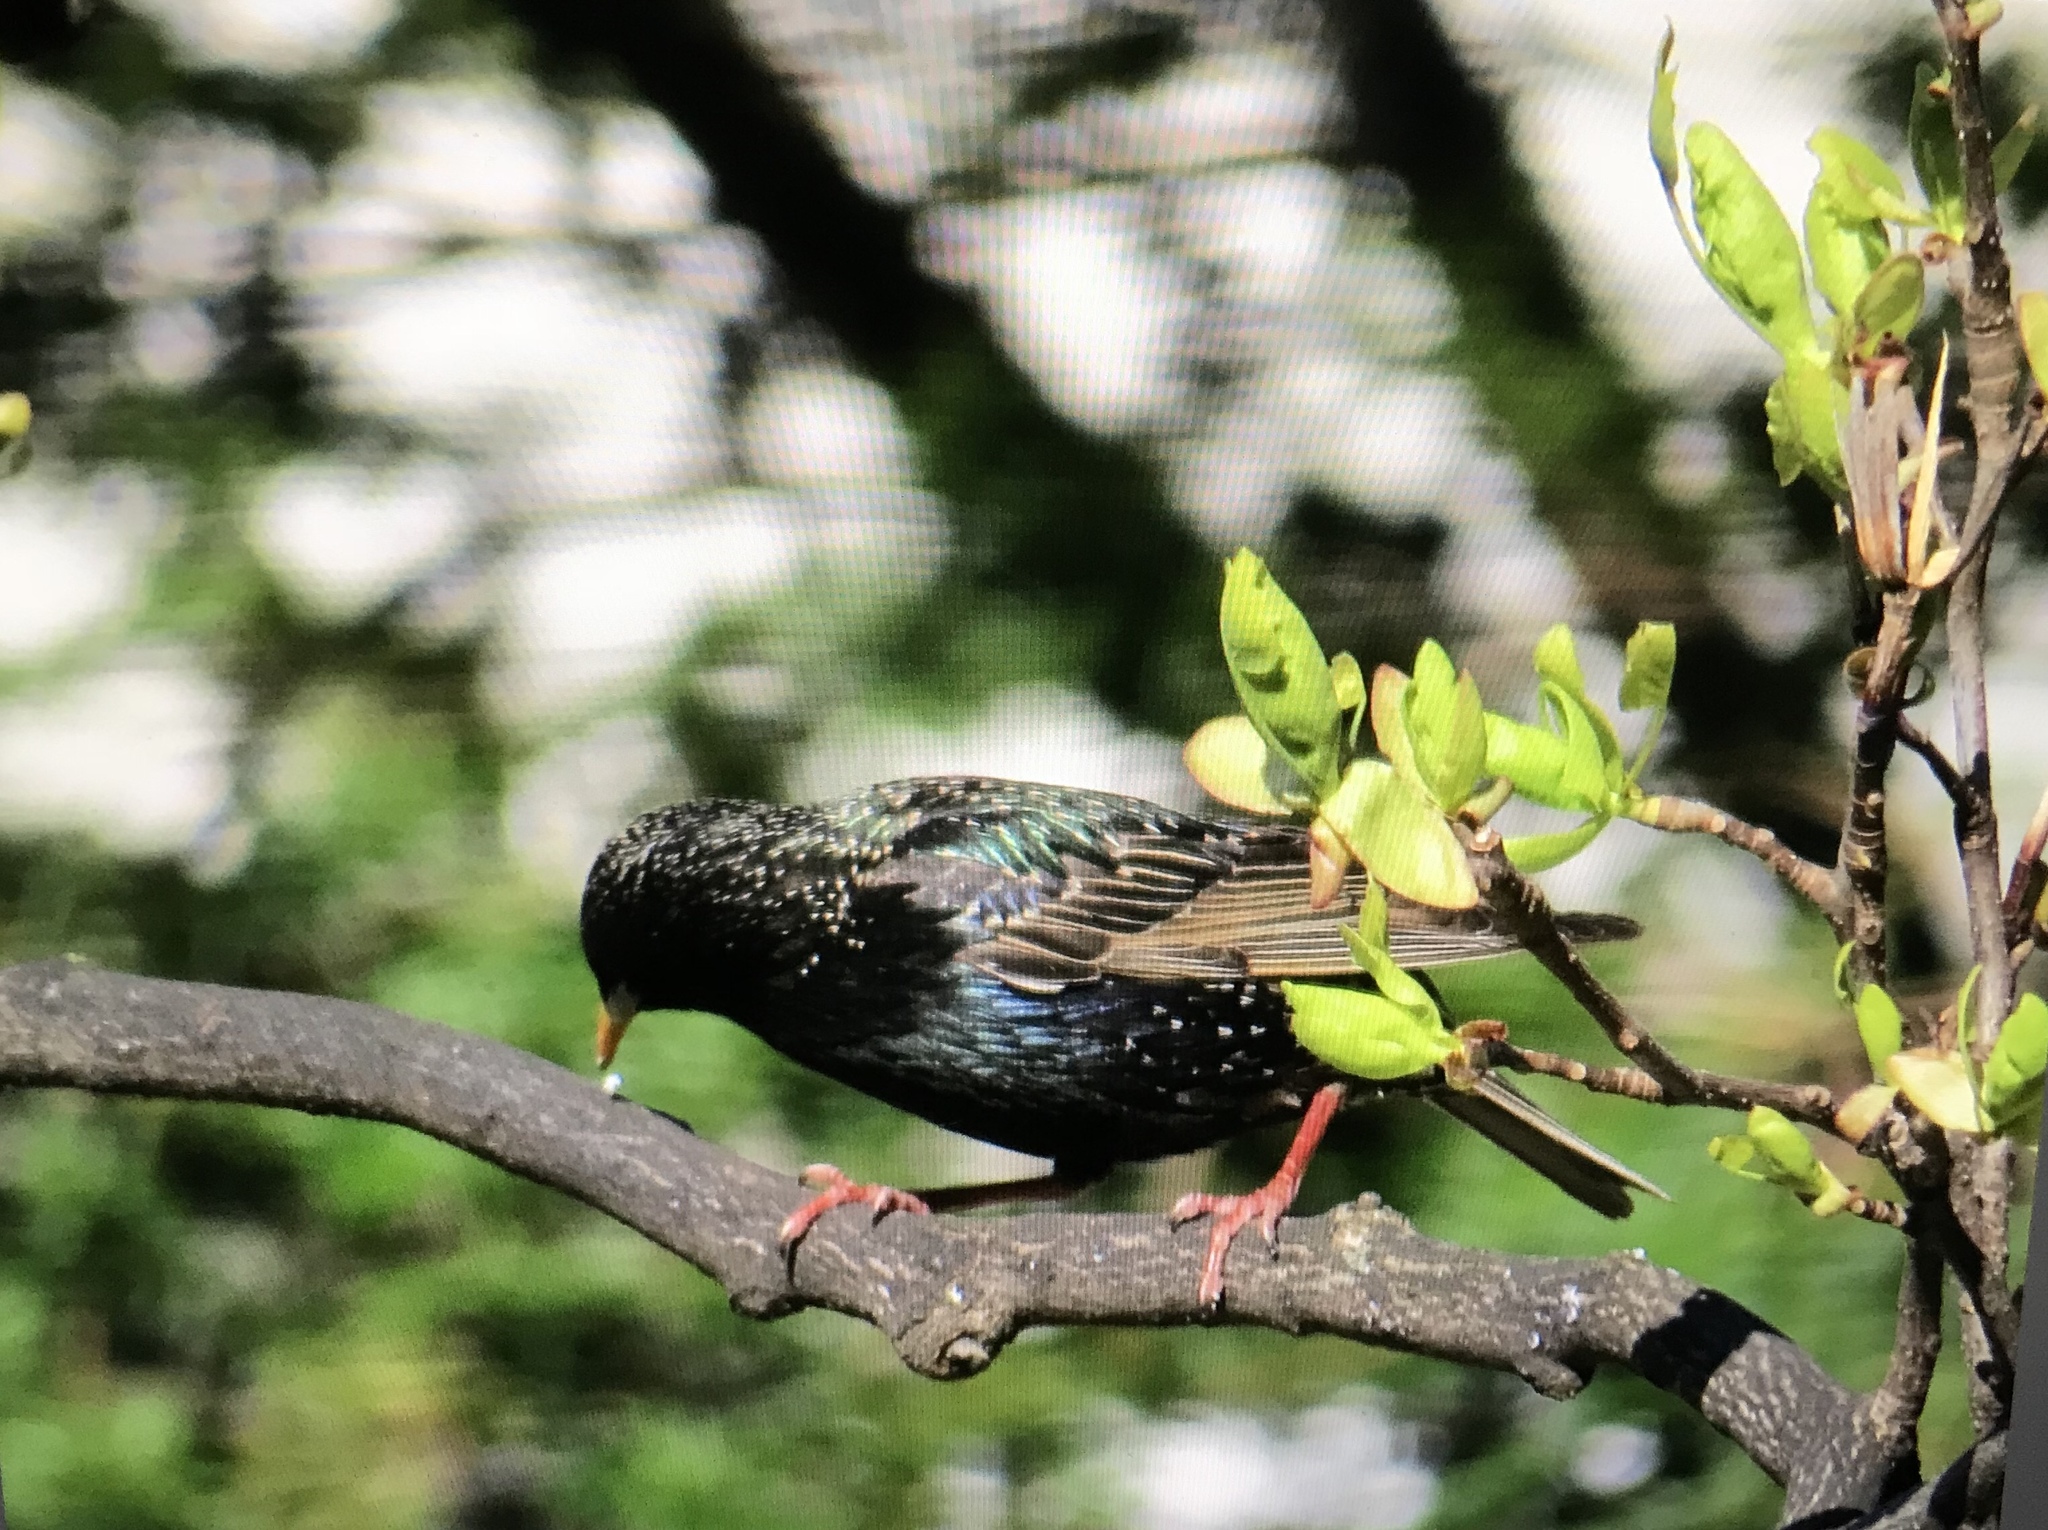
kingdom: Animalia
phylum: Chordata
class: Aves
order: Passeriformes
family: Sturnidae
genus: Sturnus
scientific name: Sturnus vulgaris
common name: Common starling
